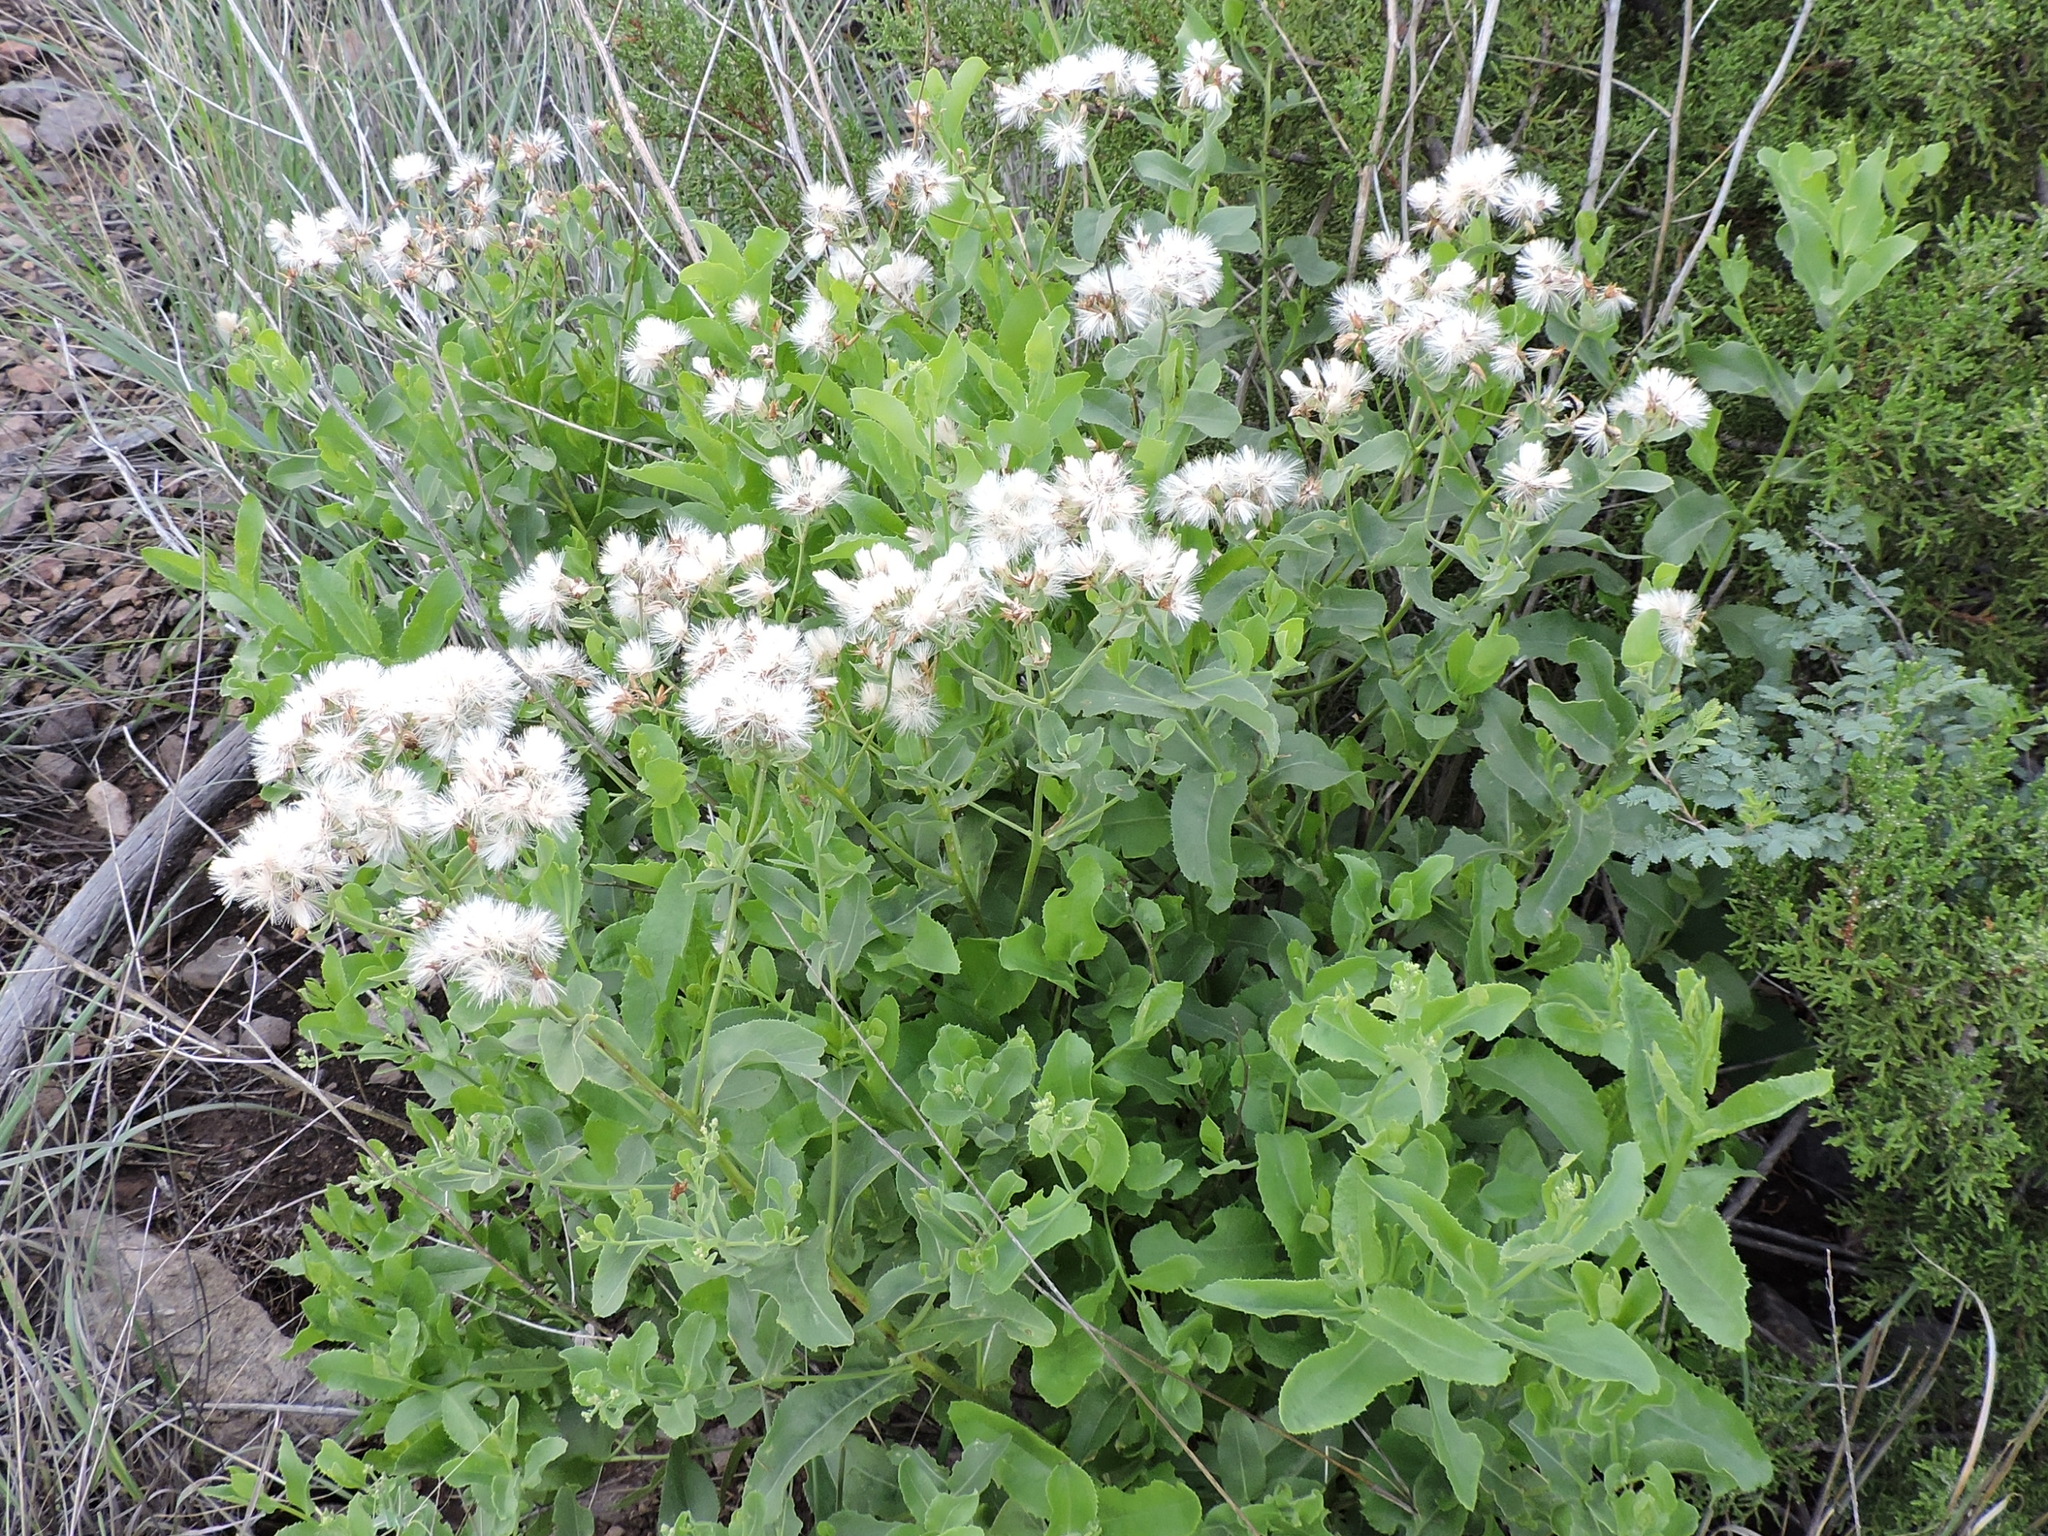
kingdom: Plantae
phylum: Tracheophyta
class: Magnoliopsida
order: Asterales
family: Asteraceae
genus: Acourtia
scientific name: Acourtia wrightii
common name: Brownfoot
